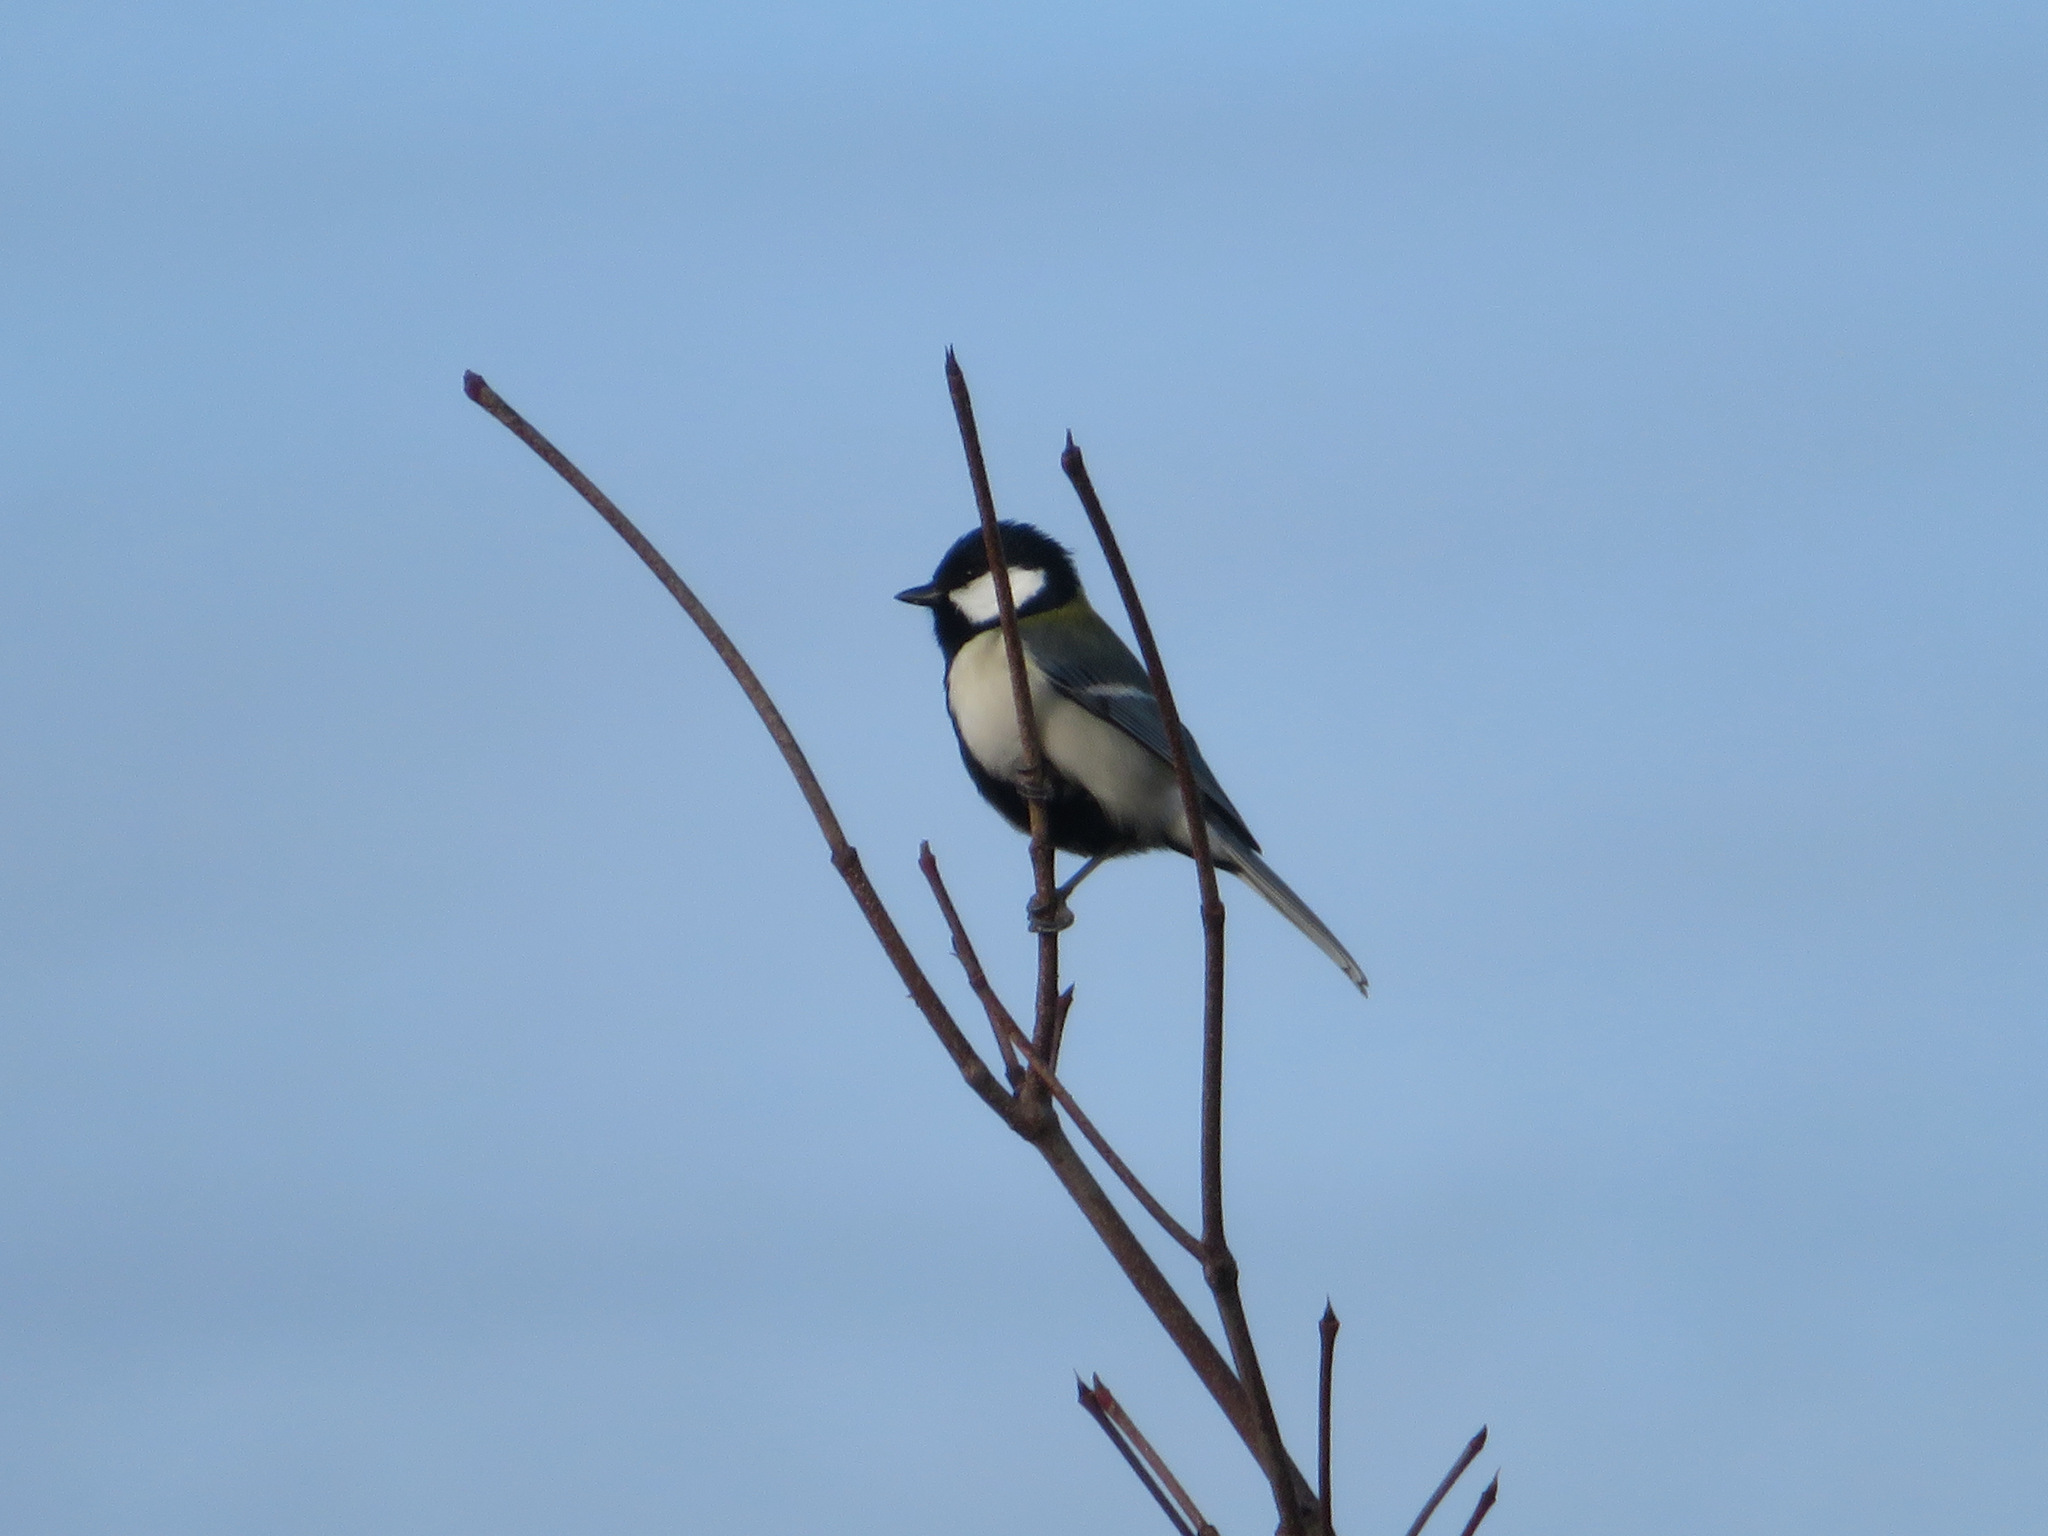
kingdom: Animalia
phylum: Chordata
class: Aves
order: Passeriformes
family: Paridae
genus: Parus
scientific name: Parus minor
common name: Japanese tit
